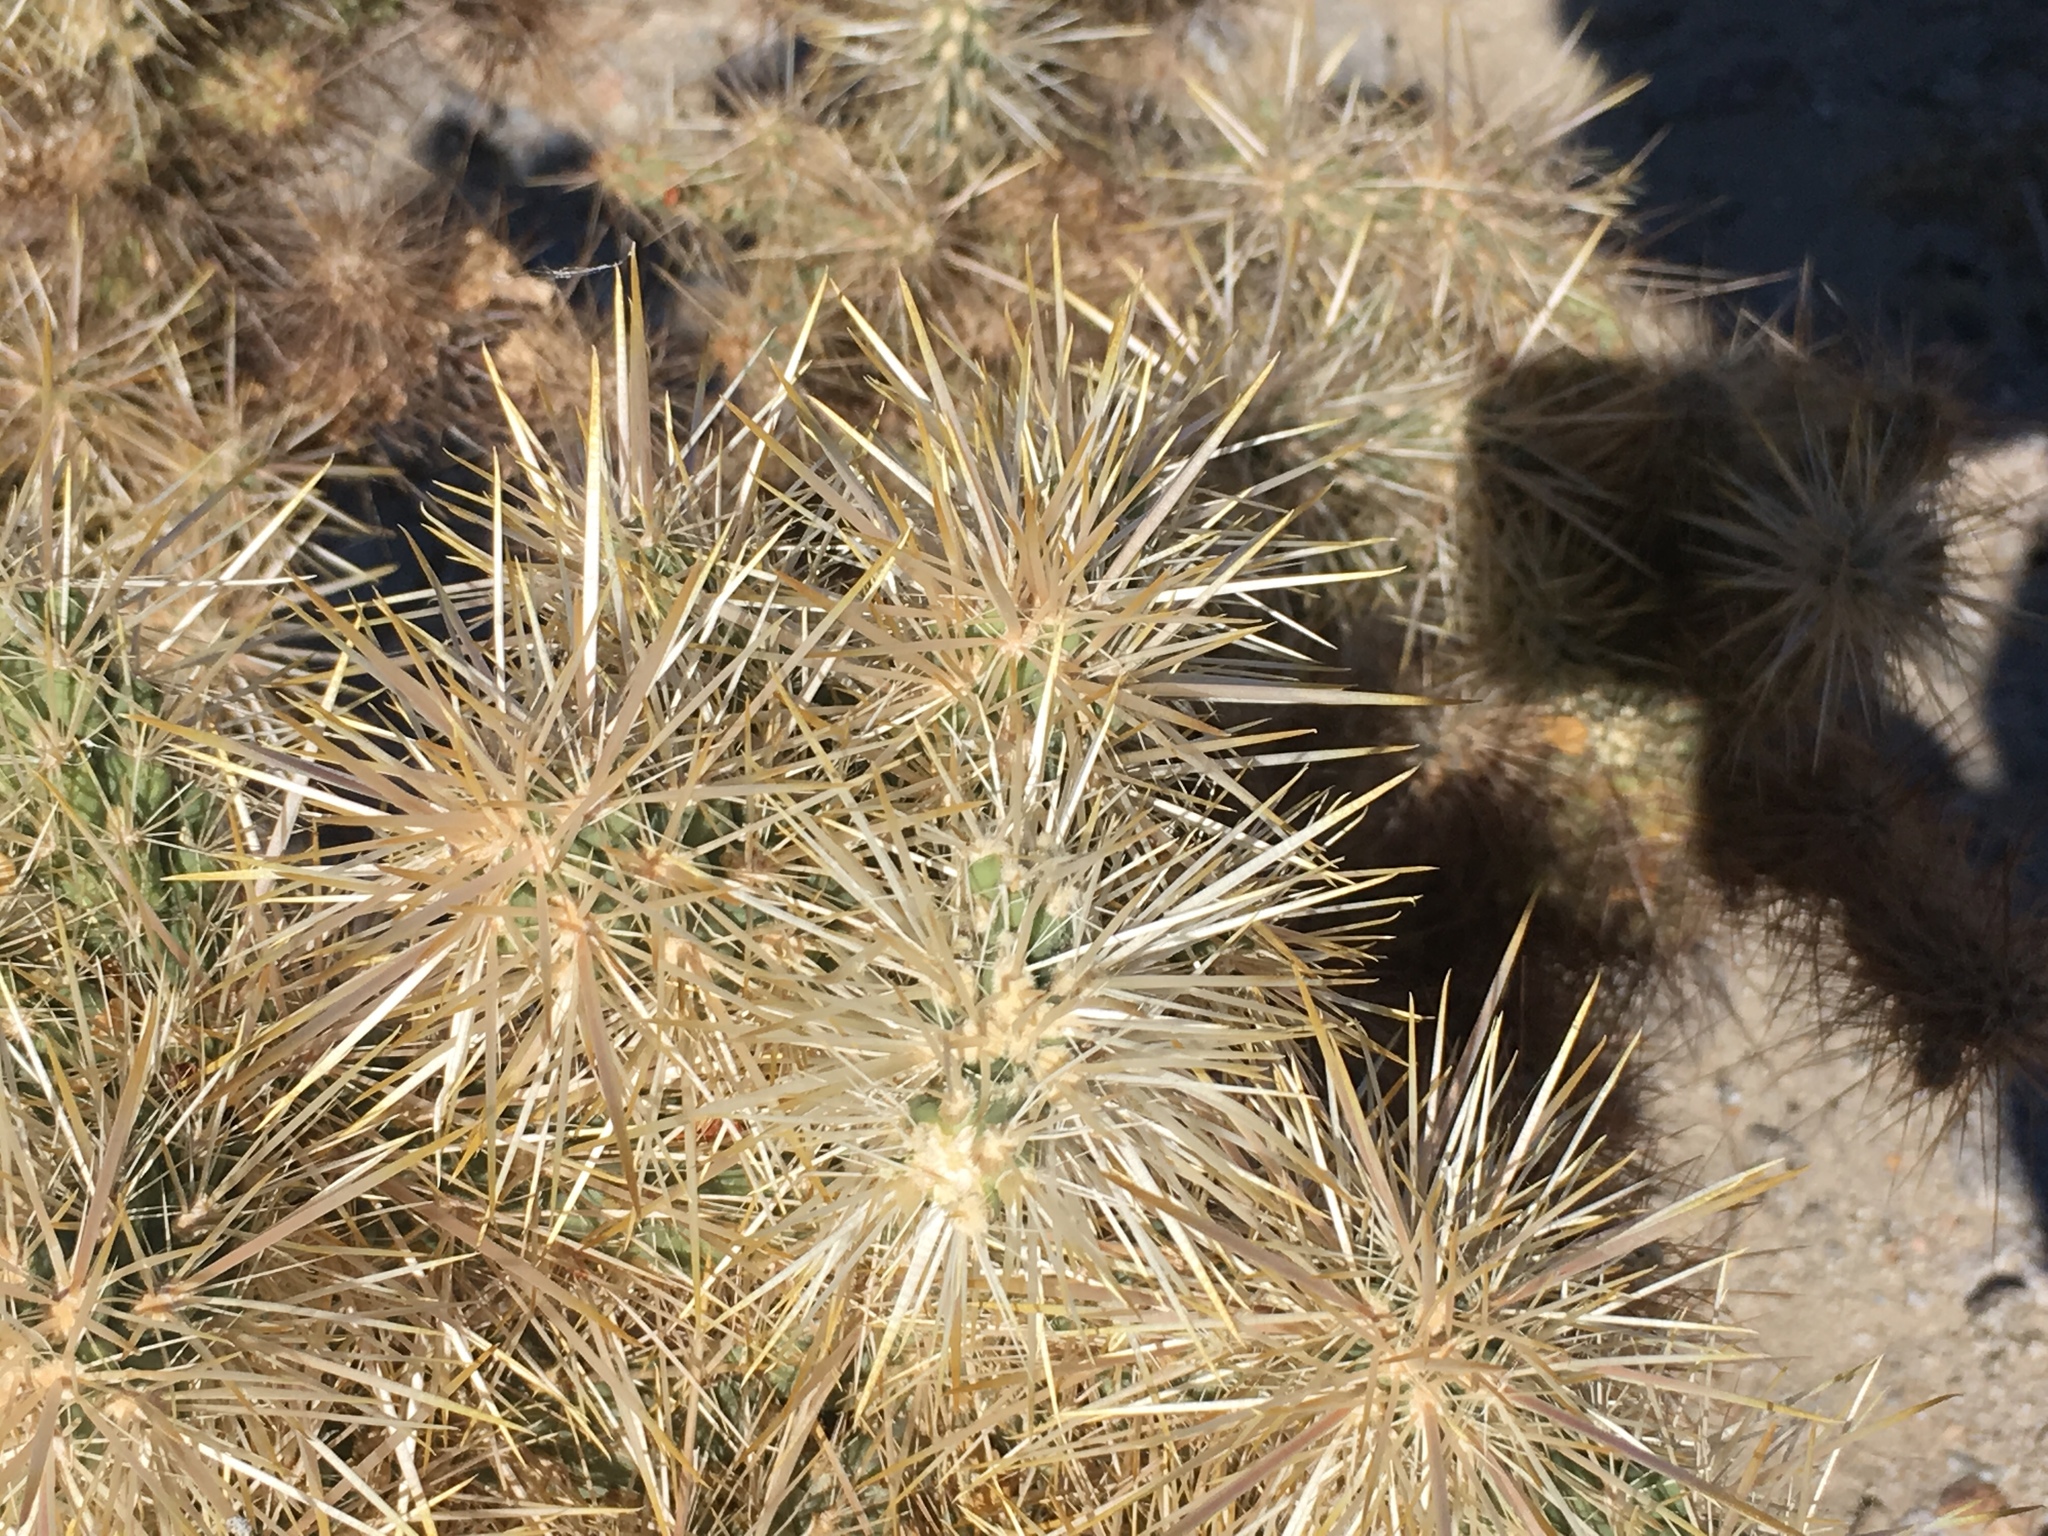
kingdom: Plantae
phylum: Tracheophyta
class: Magnoliopsida
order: Caryophyllales
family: Cactaceae
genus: Cylindropuntia
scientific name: Cylindropuntia echinocarpa
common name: Ground cholla
